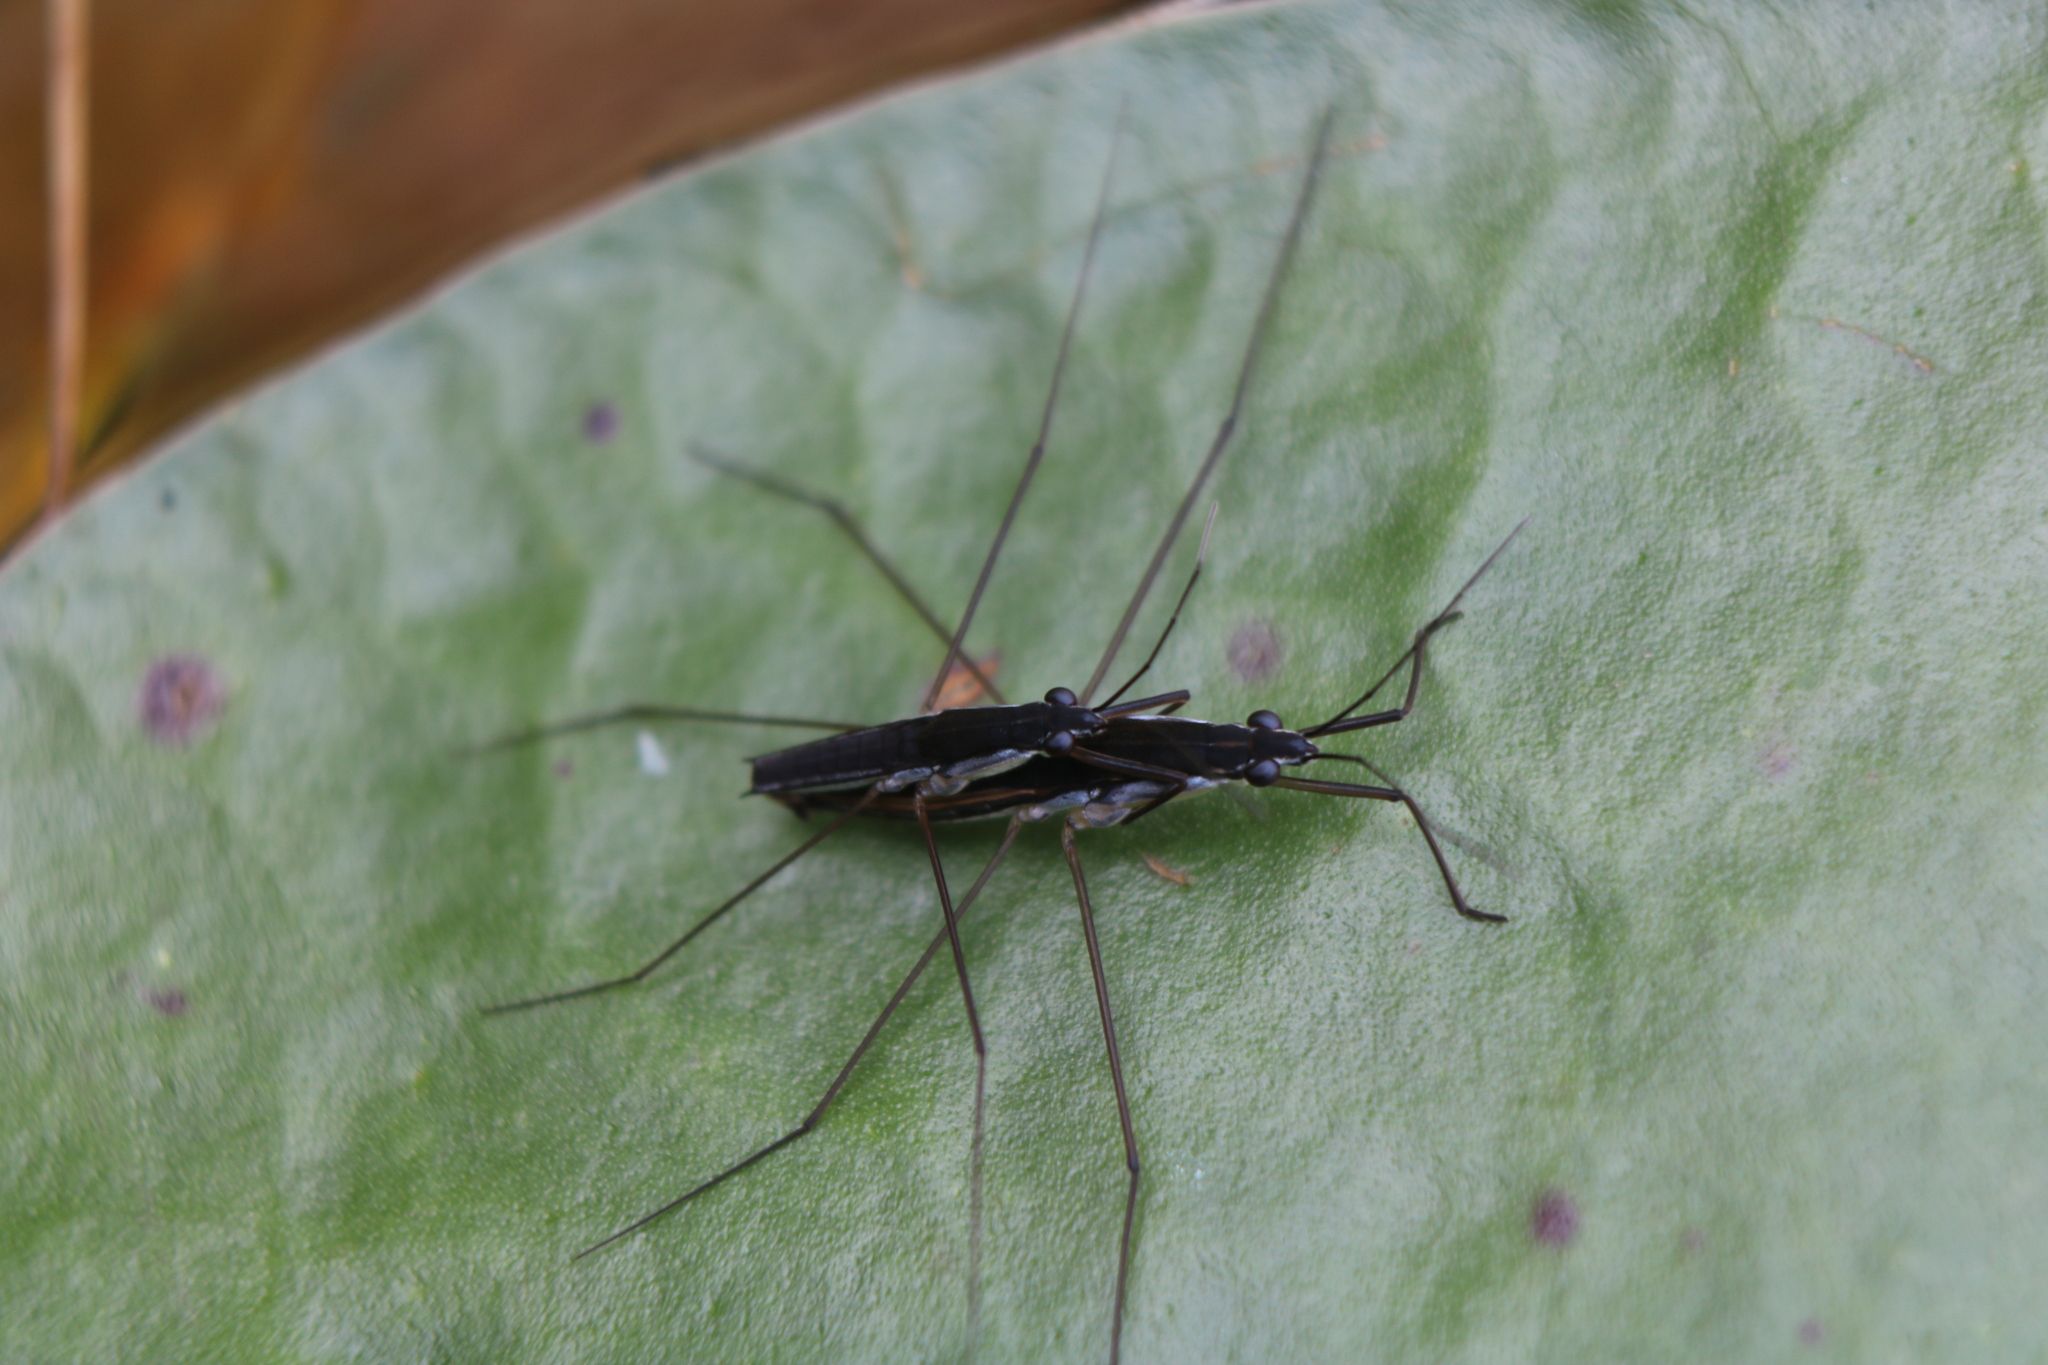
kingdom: Animalia
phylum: Arthropoda
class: Insecta
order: Hemiptera
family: Gerridae
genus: Limnoporus
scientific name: Limnoporus canaliculatus
